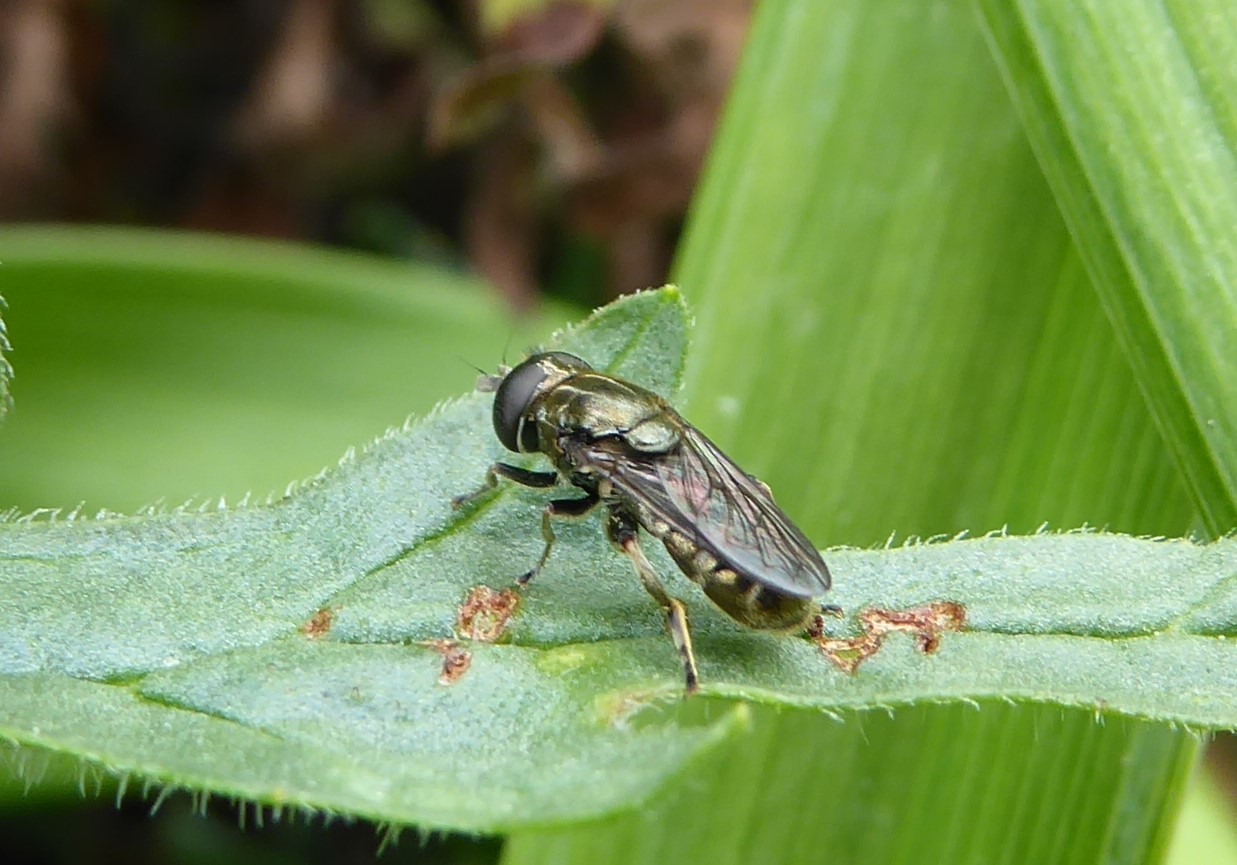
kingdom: Animalia
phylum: Arthropoda
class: Insecta
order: Diptera
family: Syrphidae
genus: Eumerus
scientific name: Eumerus
